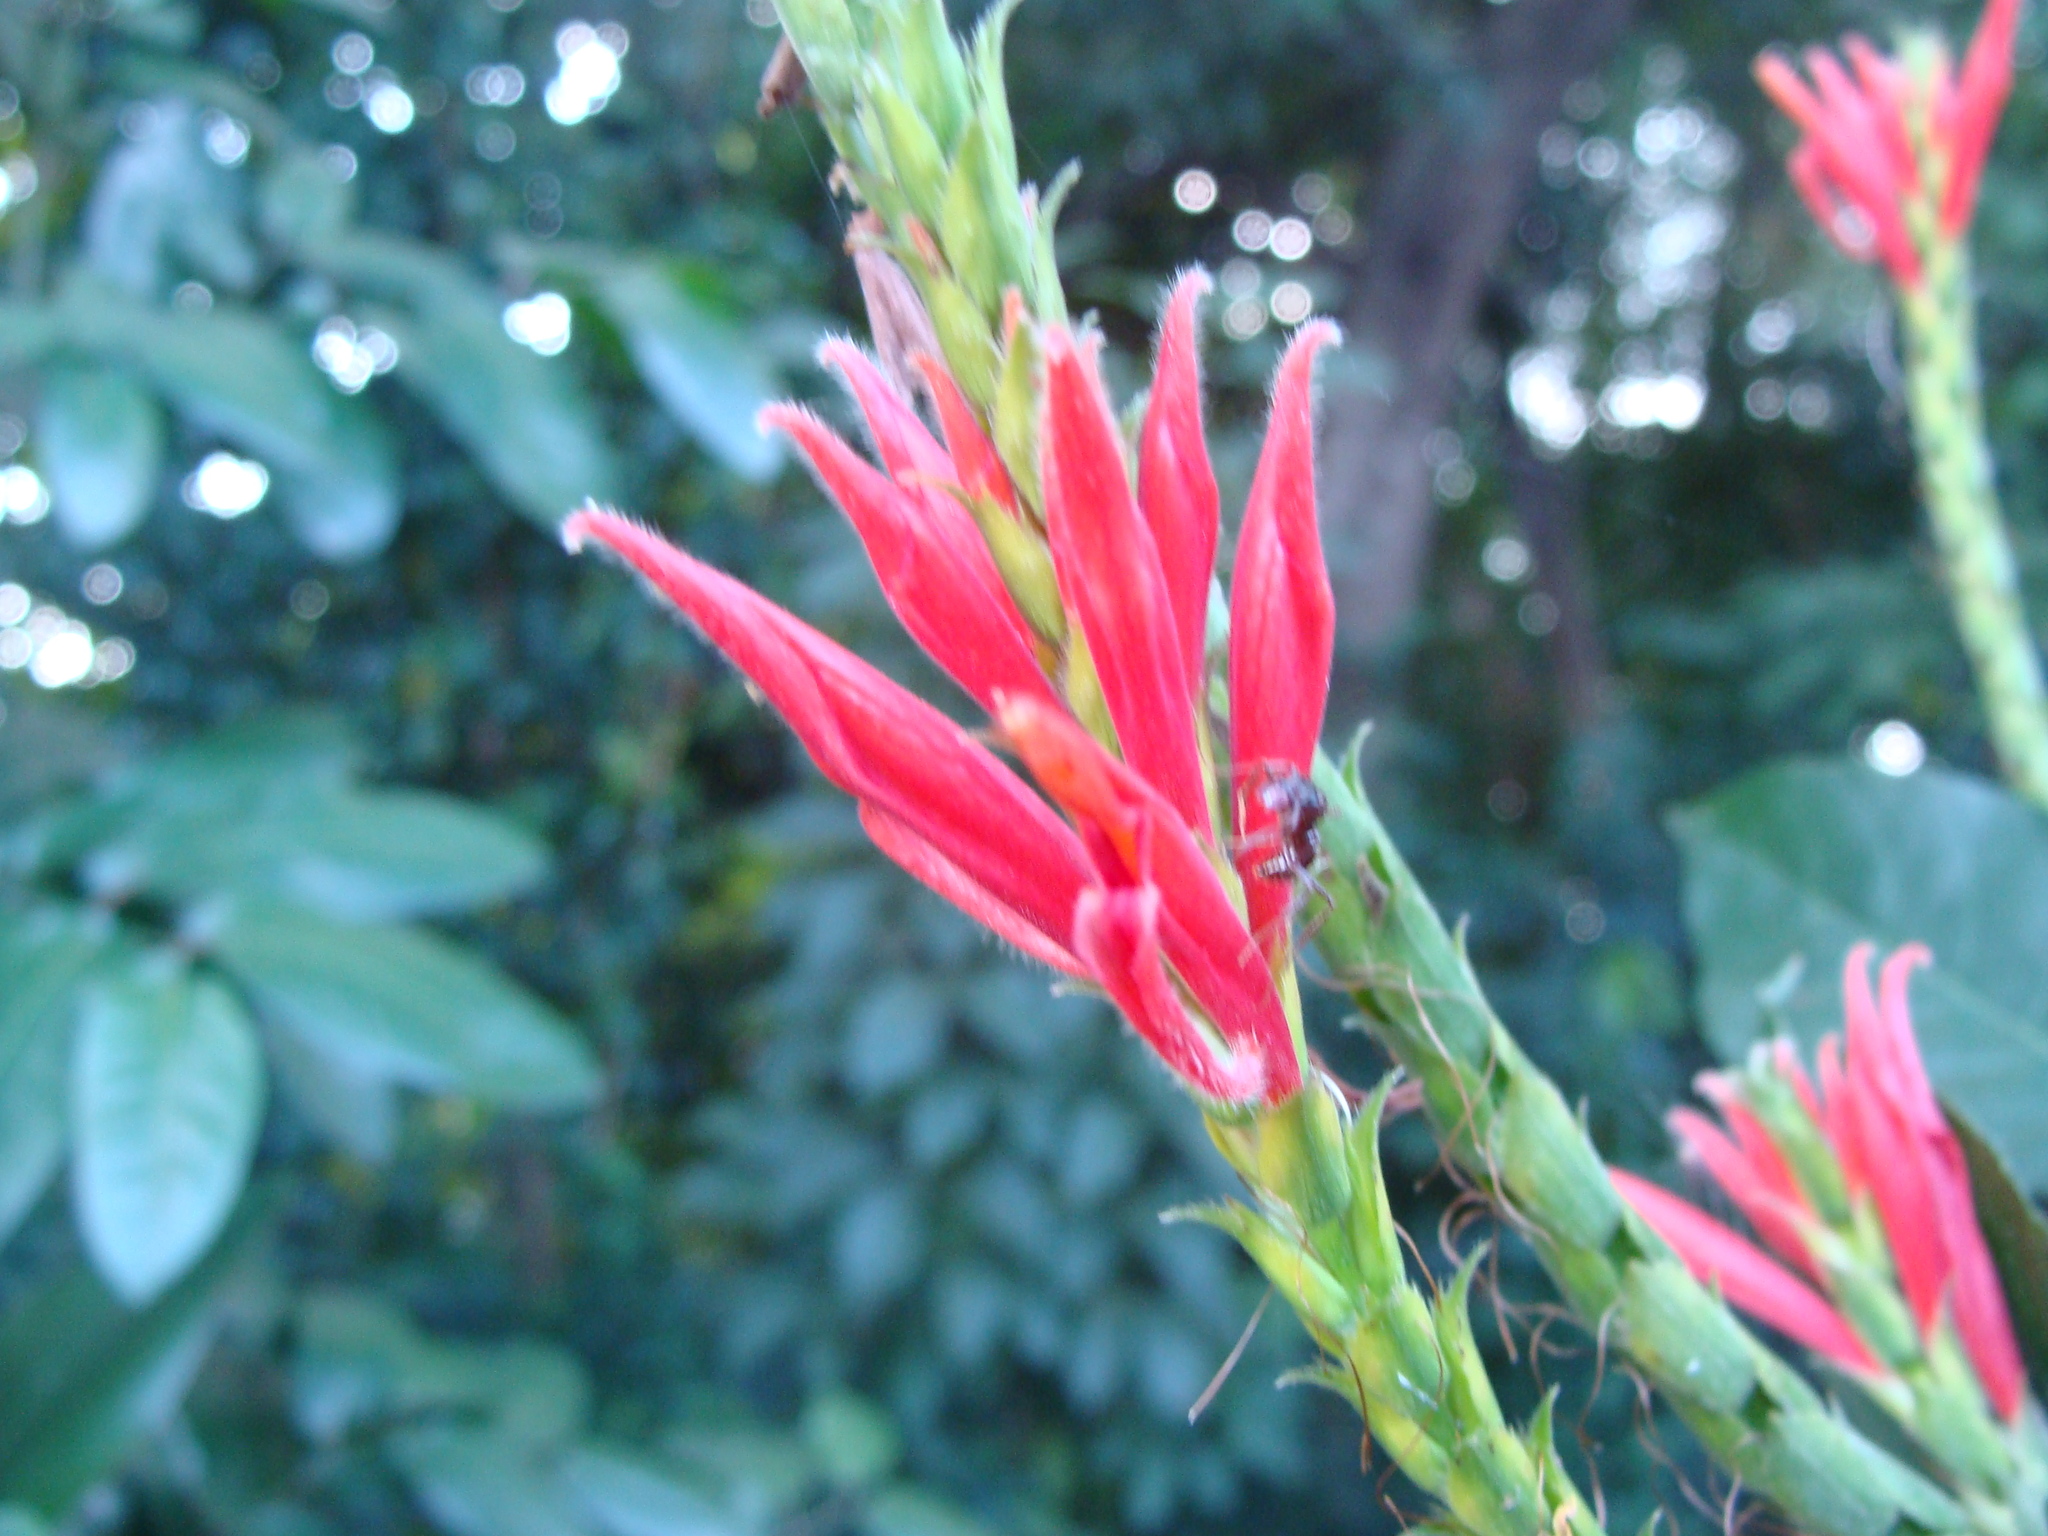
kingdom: Plantae
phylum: Tracheophyta
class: Magnoliopsida
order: Lamiales
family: Acanthaceae
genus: Aphelandra
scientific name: Aphelandra scabra
